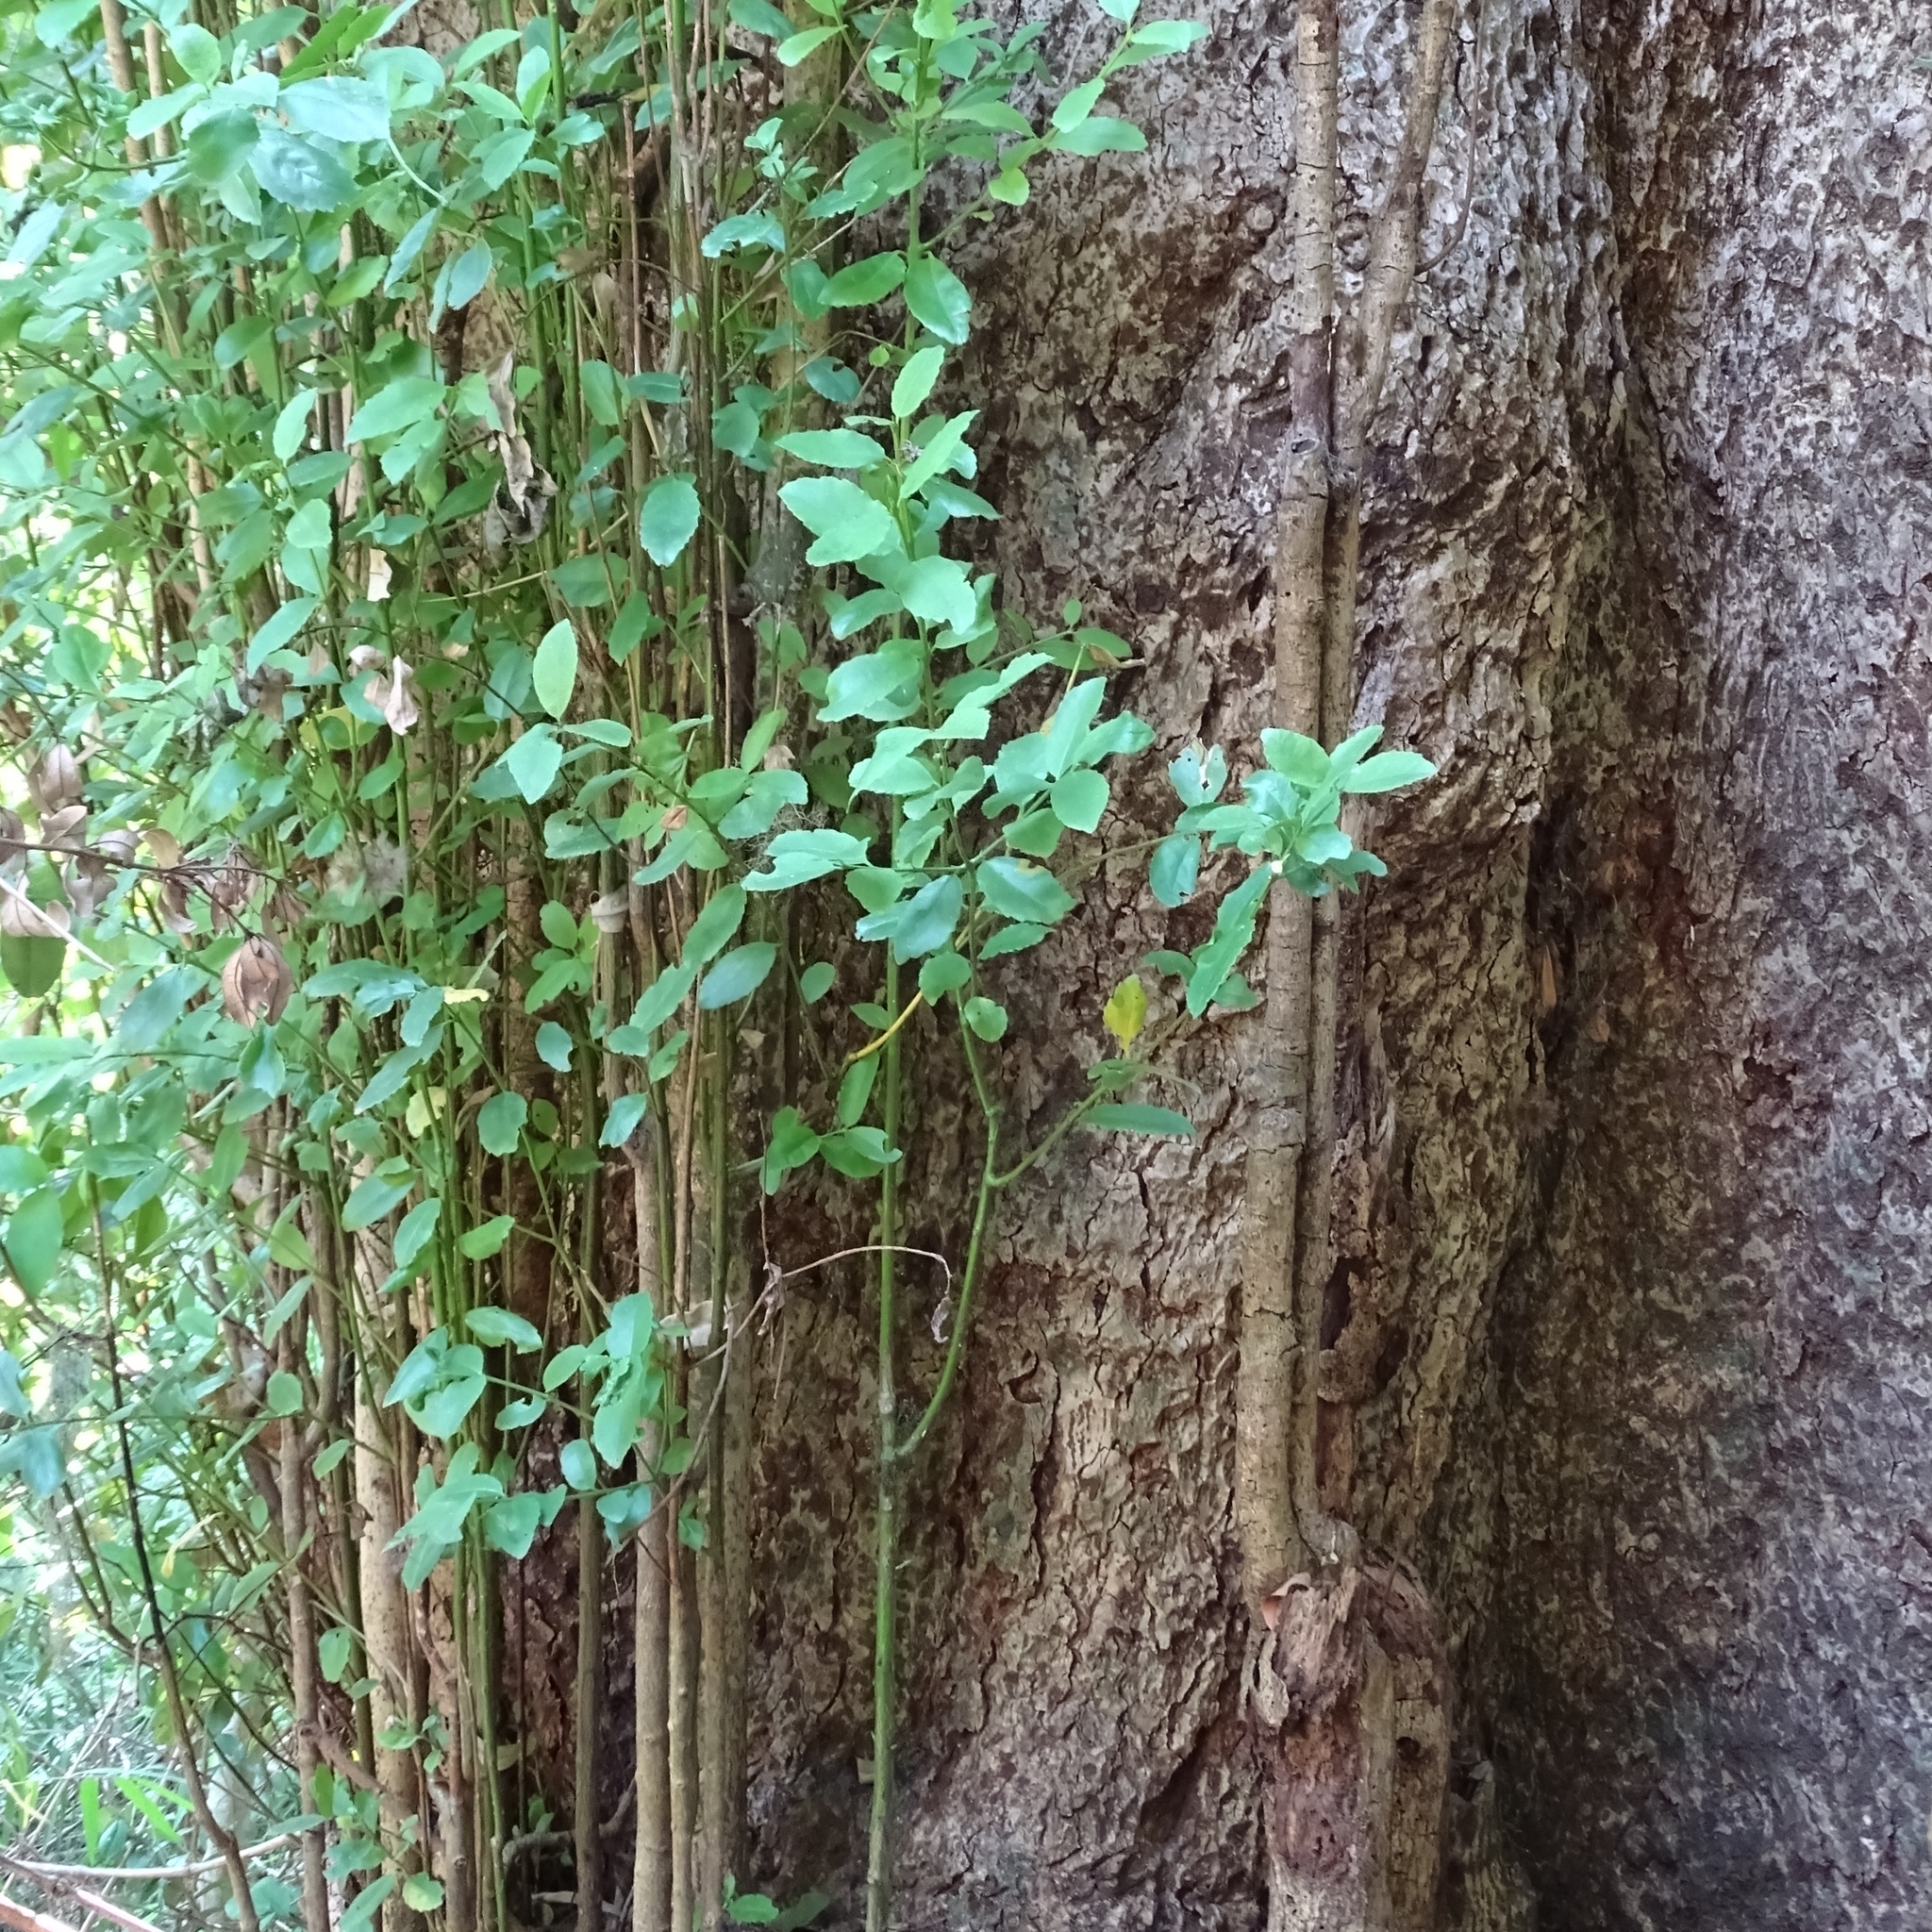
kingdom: Plantae
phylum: Tracheophyta
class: Magnoliopsida
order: Laurales
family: Atherospermataceae
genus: Laurelia
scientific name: Laurelia sempervirens
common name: Chilean laurel
